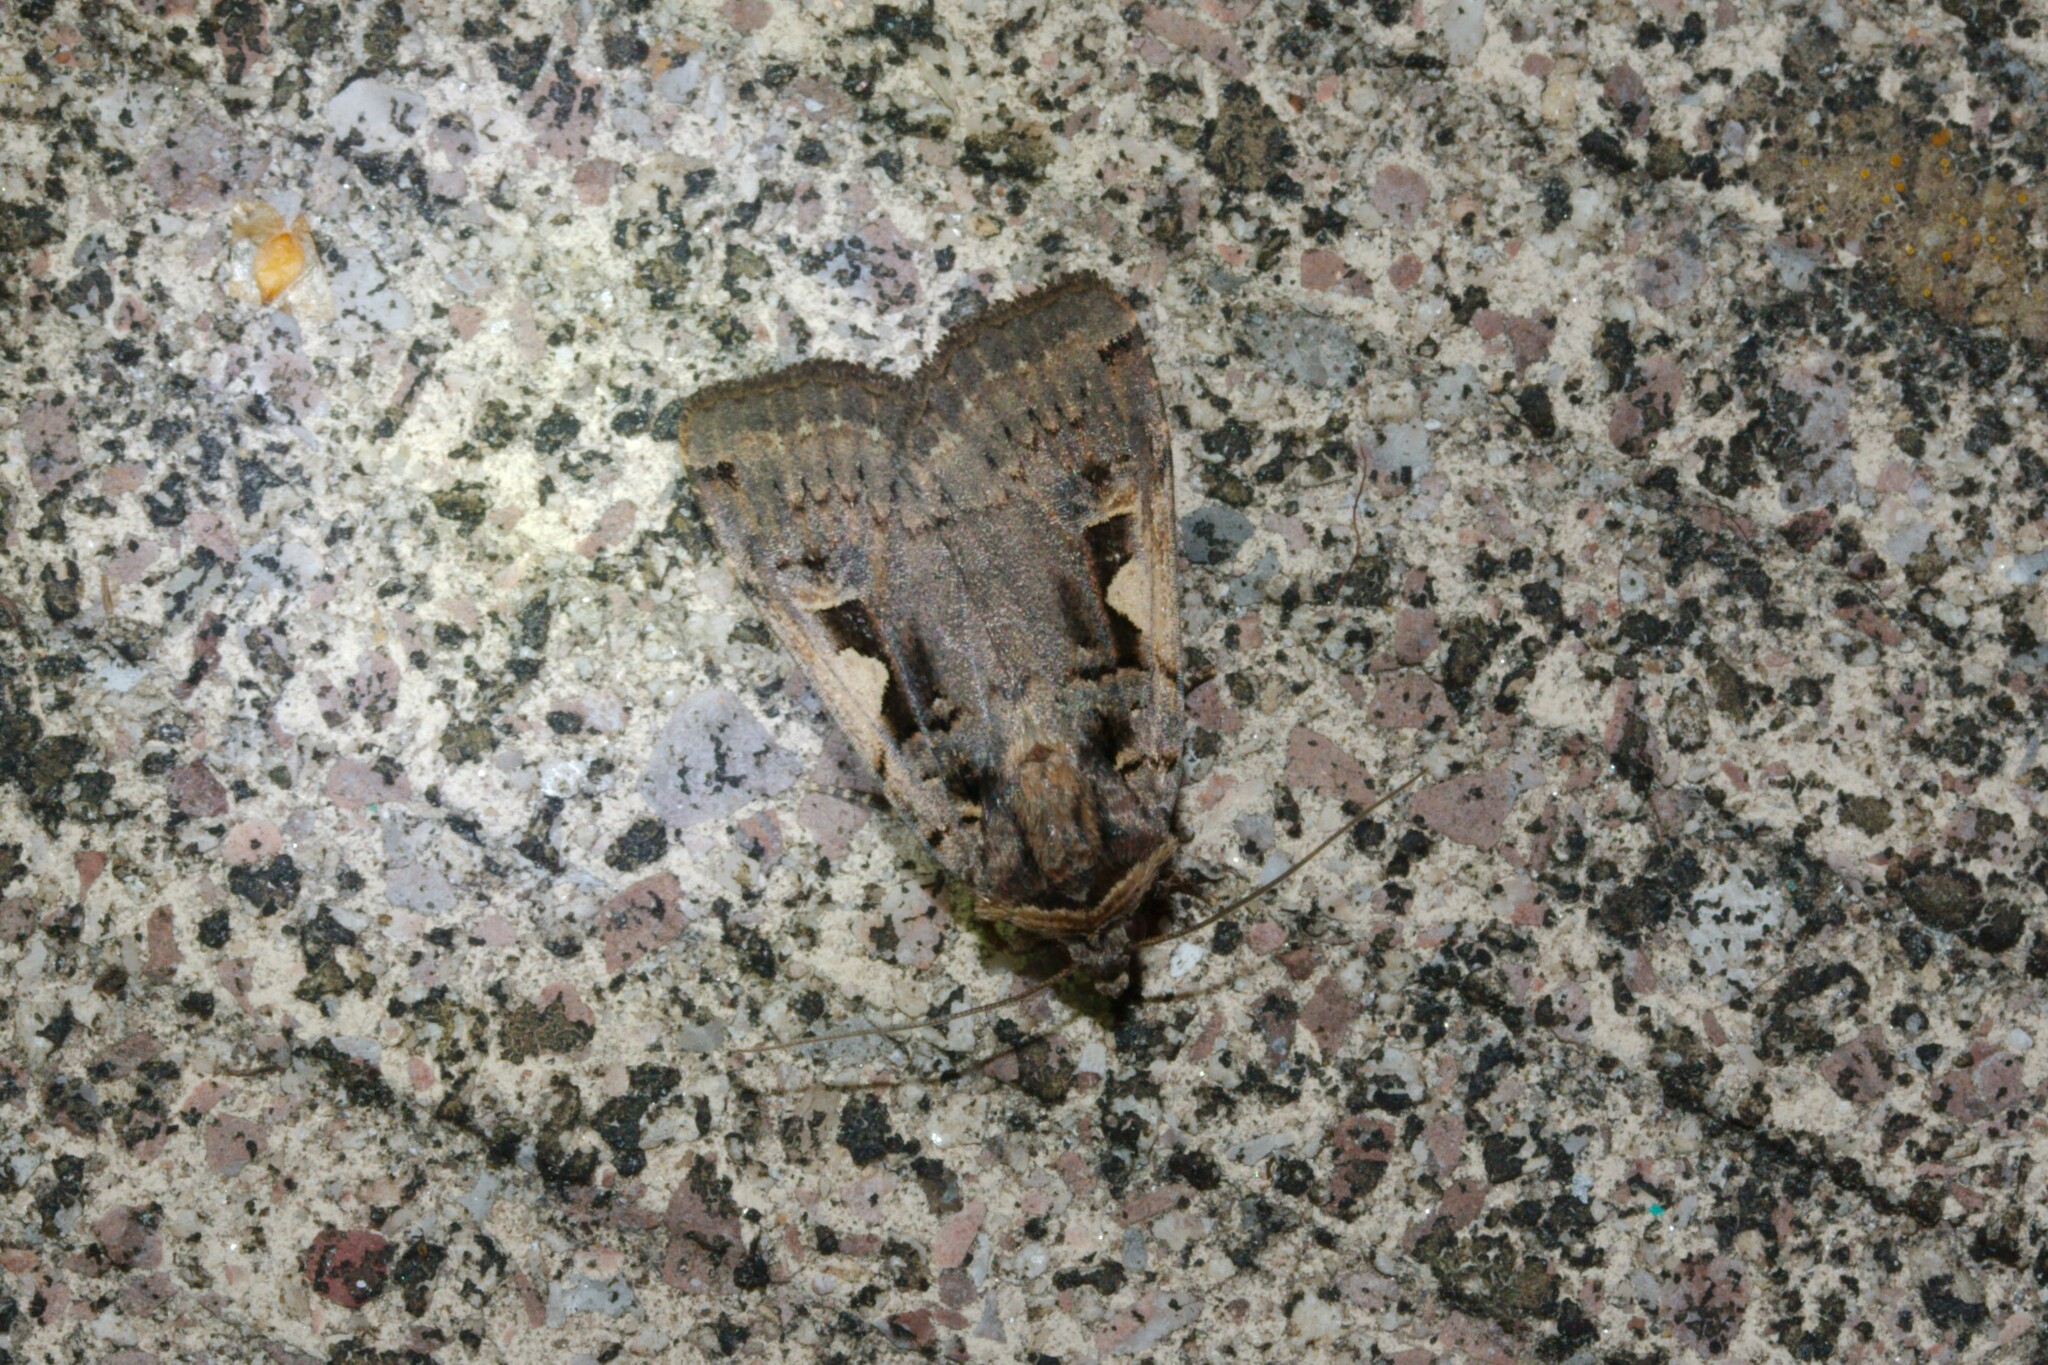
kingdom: Animalia
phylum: Arthropoda
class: Insecta
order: Lepidoptera
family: Noctuidae
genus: Xestia
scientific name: Xestia c-nigrum
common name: Setaceous hebrew character
